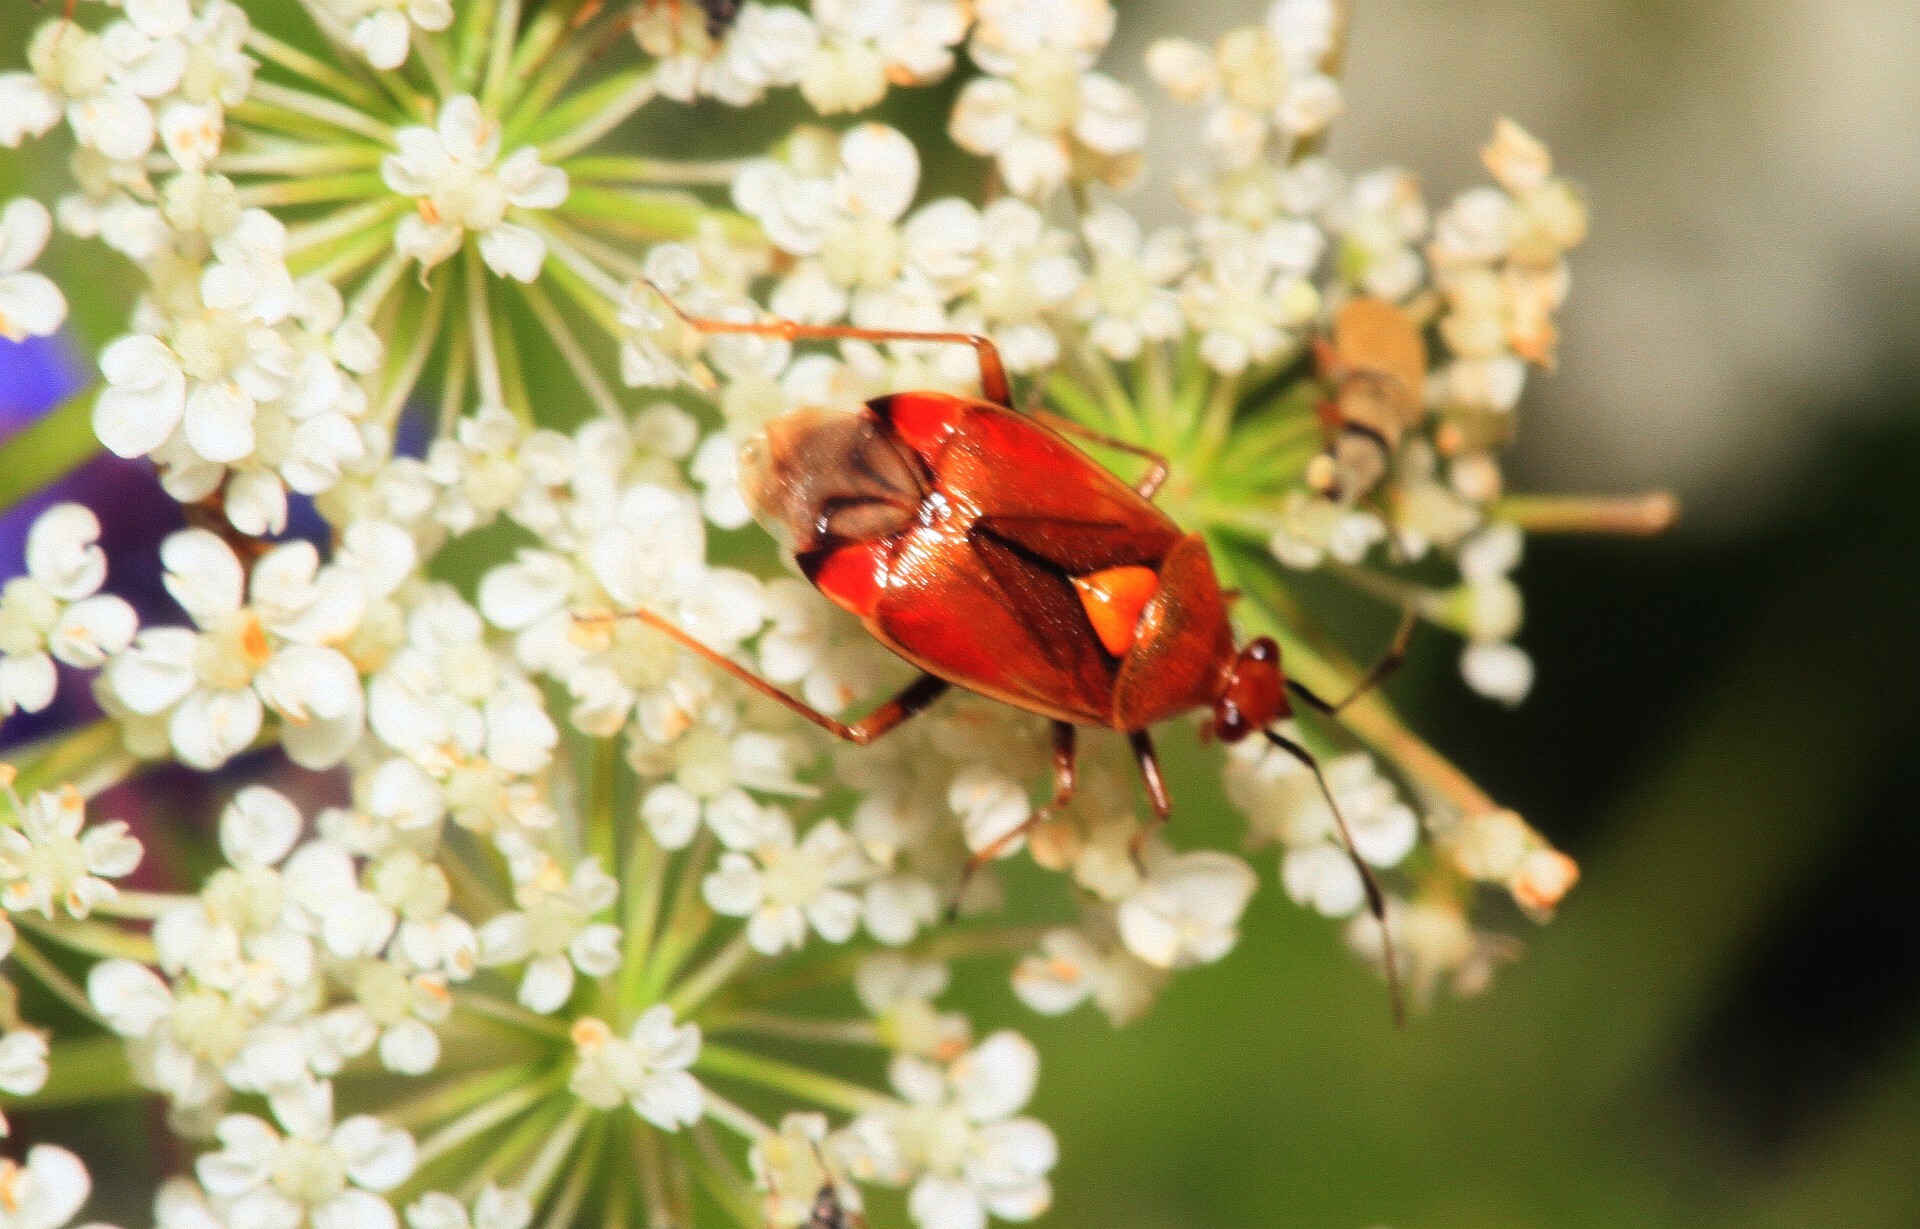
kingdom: Animalia
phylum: Arthropoda
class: Insecta
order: Hemiptera
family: Miridae
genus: Deraeocoris
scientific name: Deraeocoris ruber
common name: Plant bug
